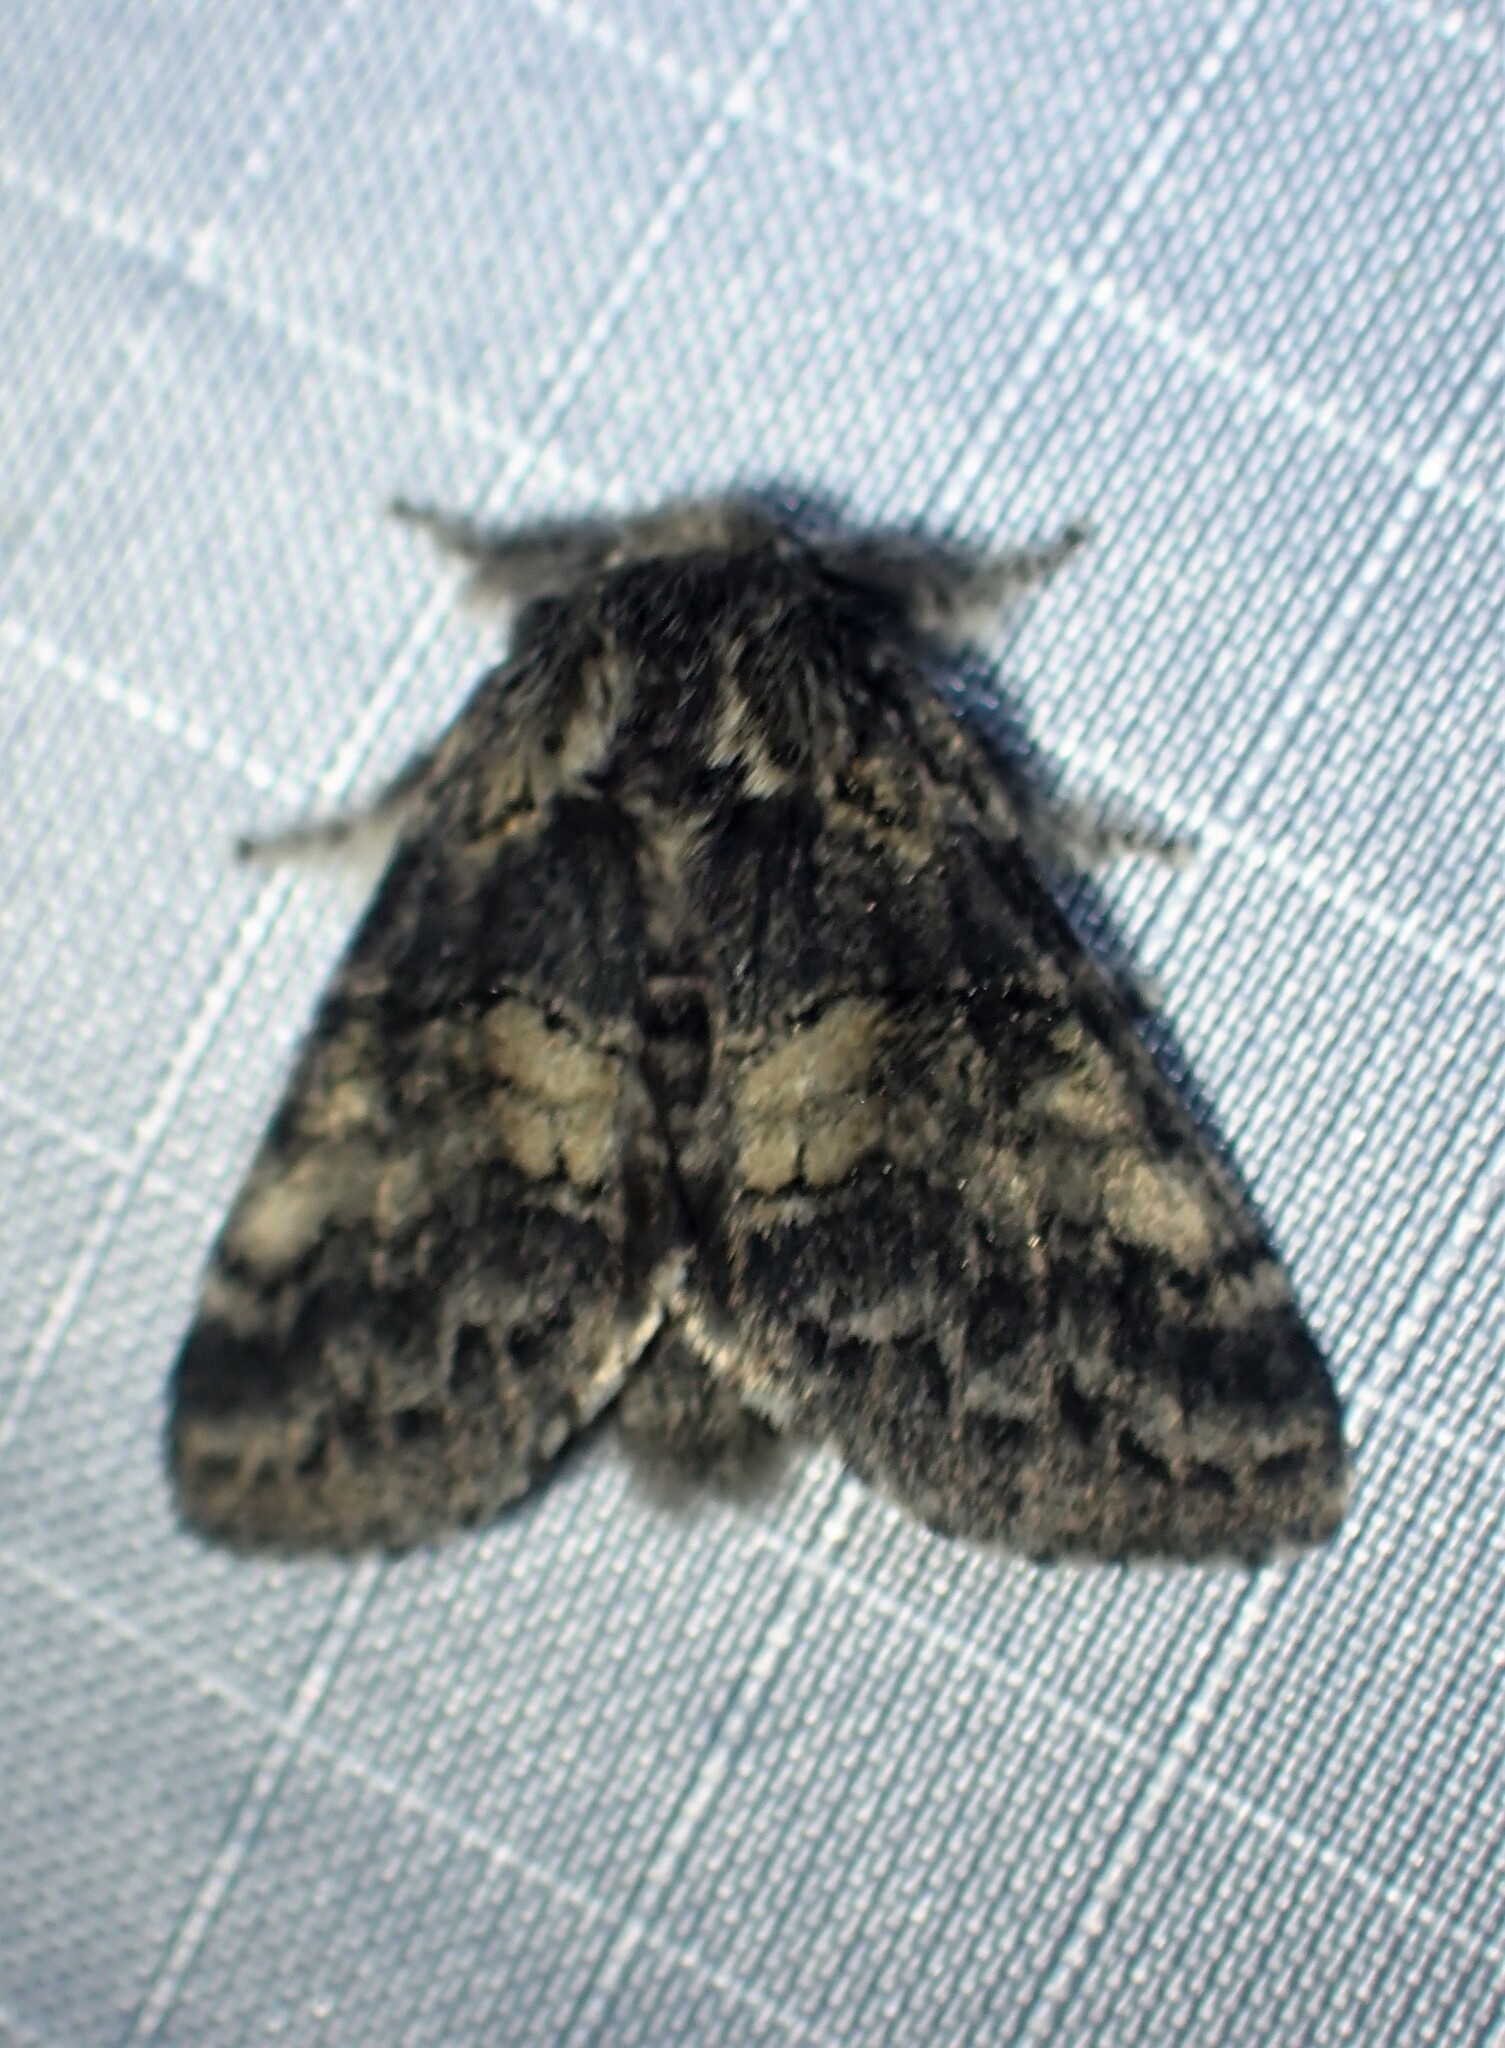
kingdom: Animalia
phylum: Arthropoda
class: Insecta
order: Lepidoptera
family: Notodontidae
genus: Gluphisia
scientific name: Gluphisia septentrionis
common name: Common gluphisia
